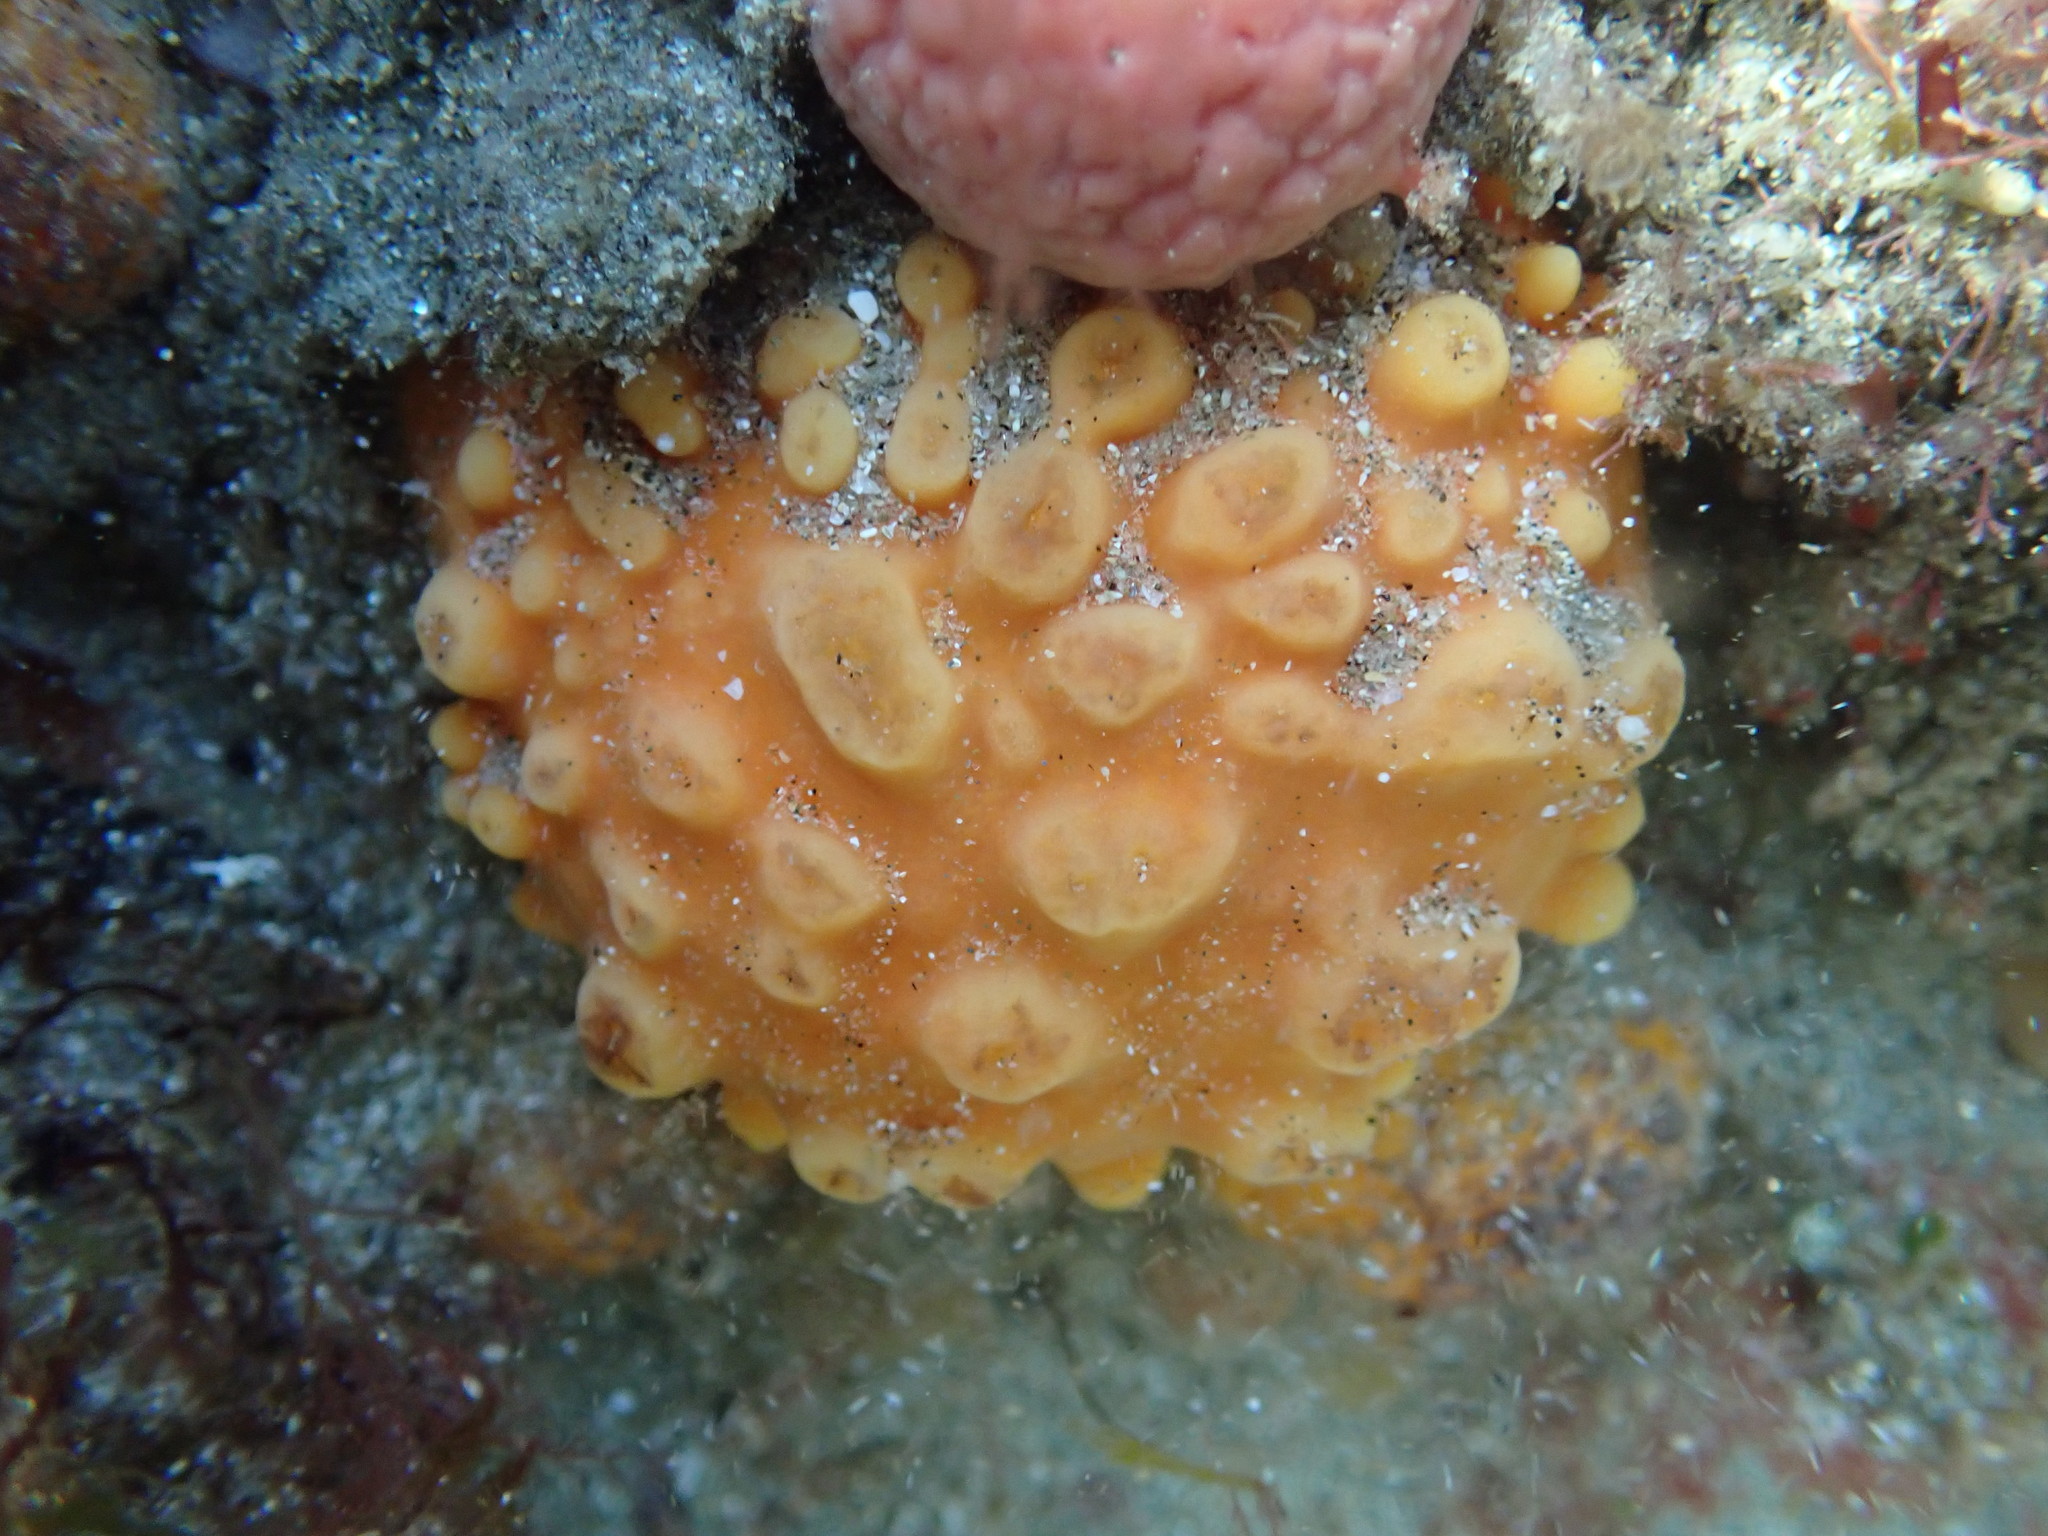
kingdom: Animalia
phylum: Porifera
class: Demospongiae
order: Tethyida
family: Tethyidae
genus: Tethya
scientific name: Tethya burtoni
